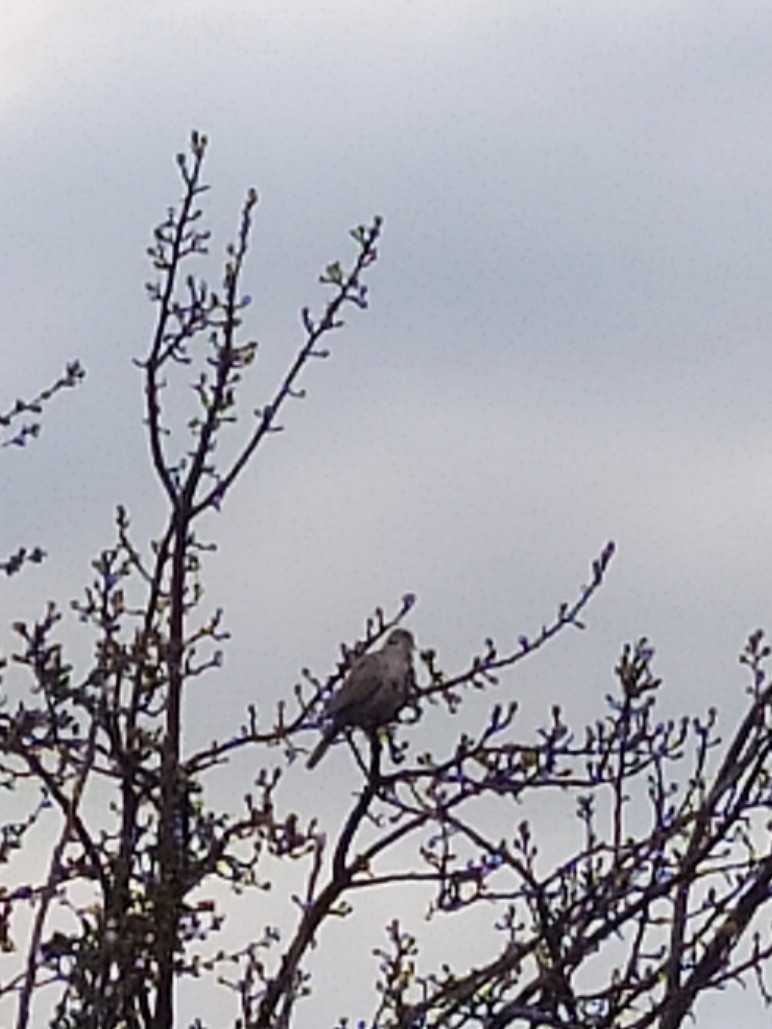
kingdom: Animalia
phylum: Chordata
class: Aves
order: Columbiformes
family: Columbidae
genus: Streptopelia
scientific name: Streptopelia decaocto
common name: Eurasian collared dove
